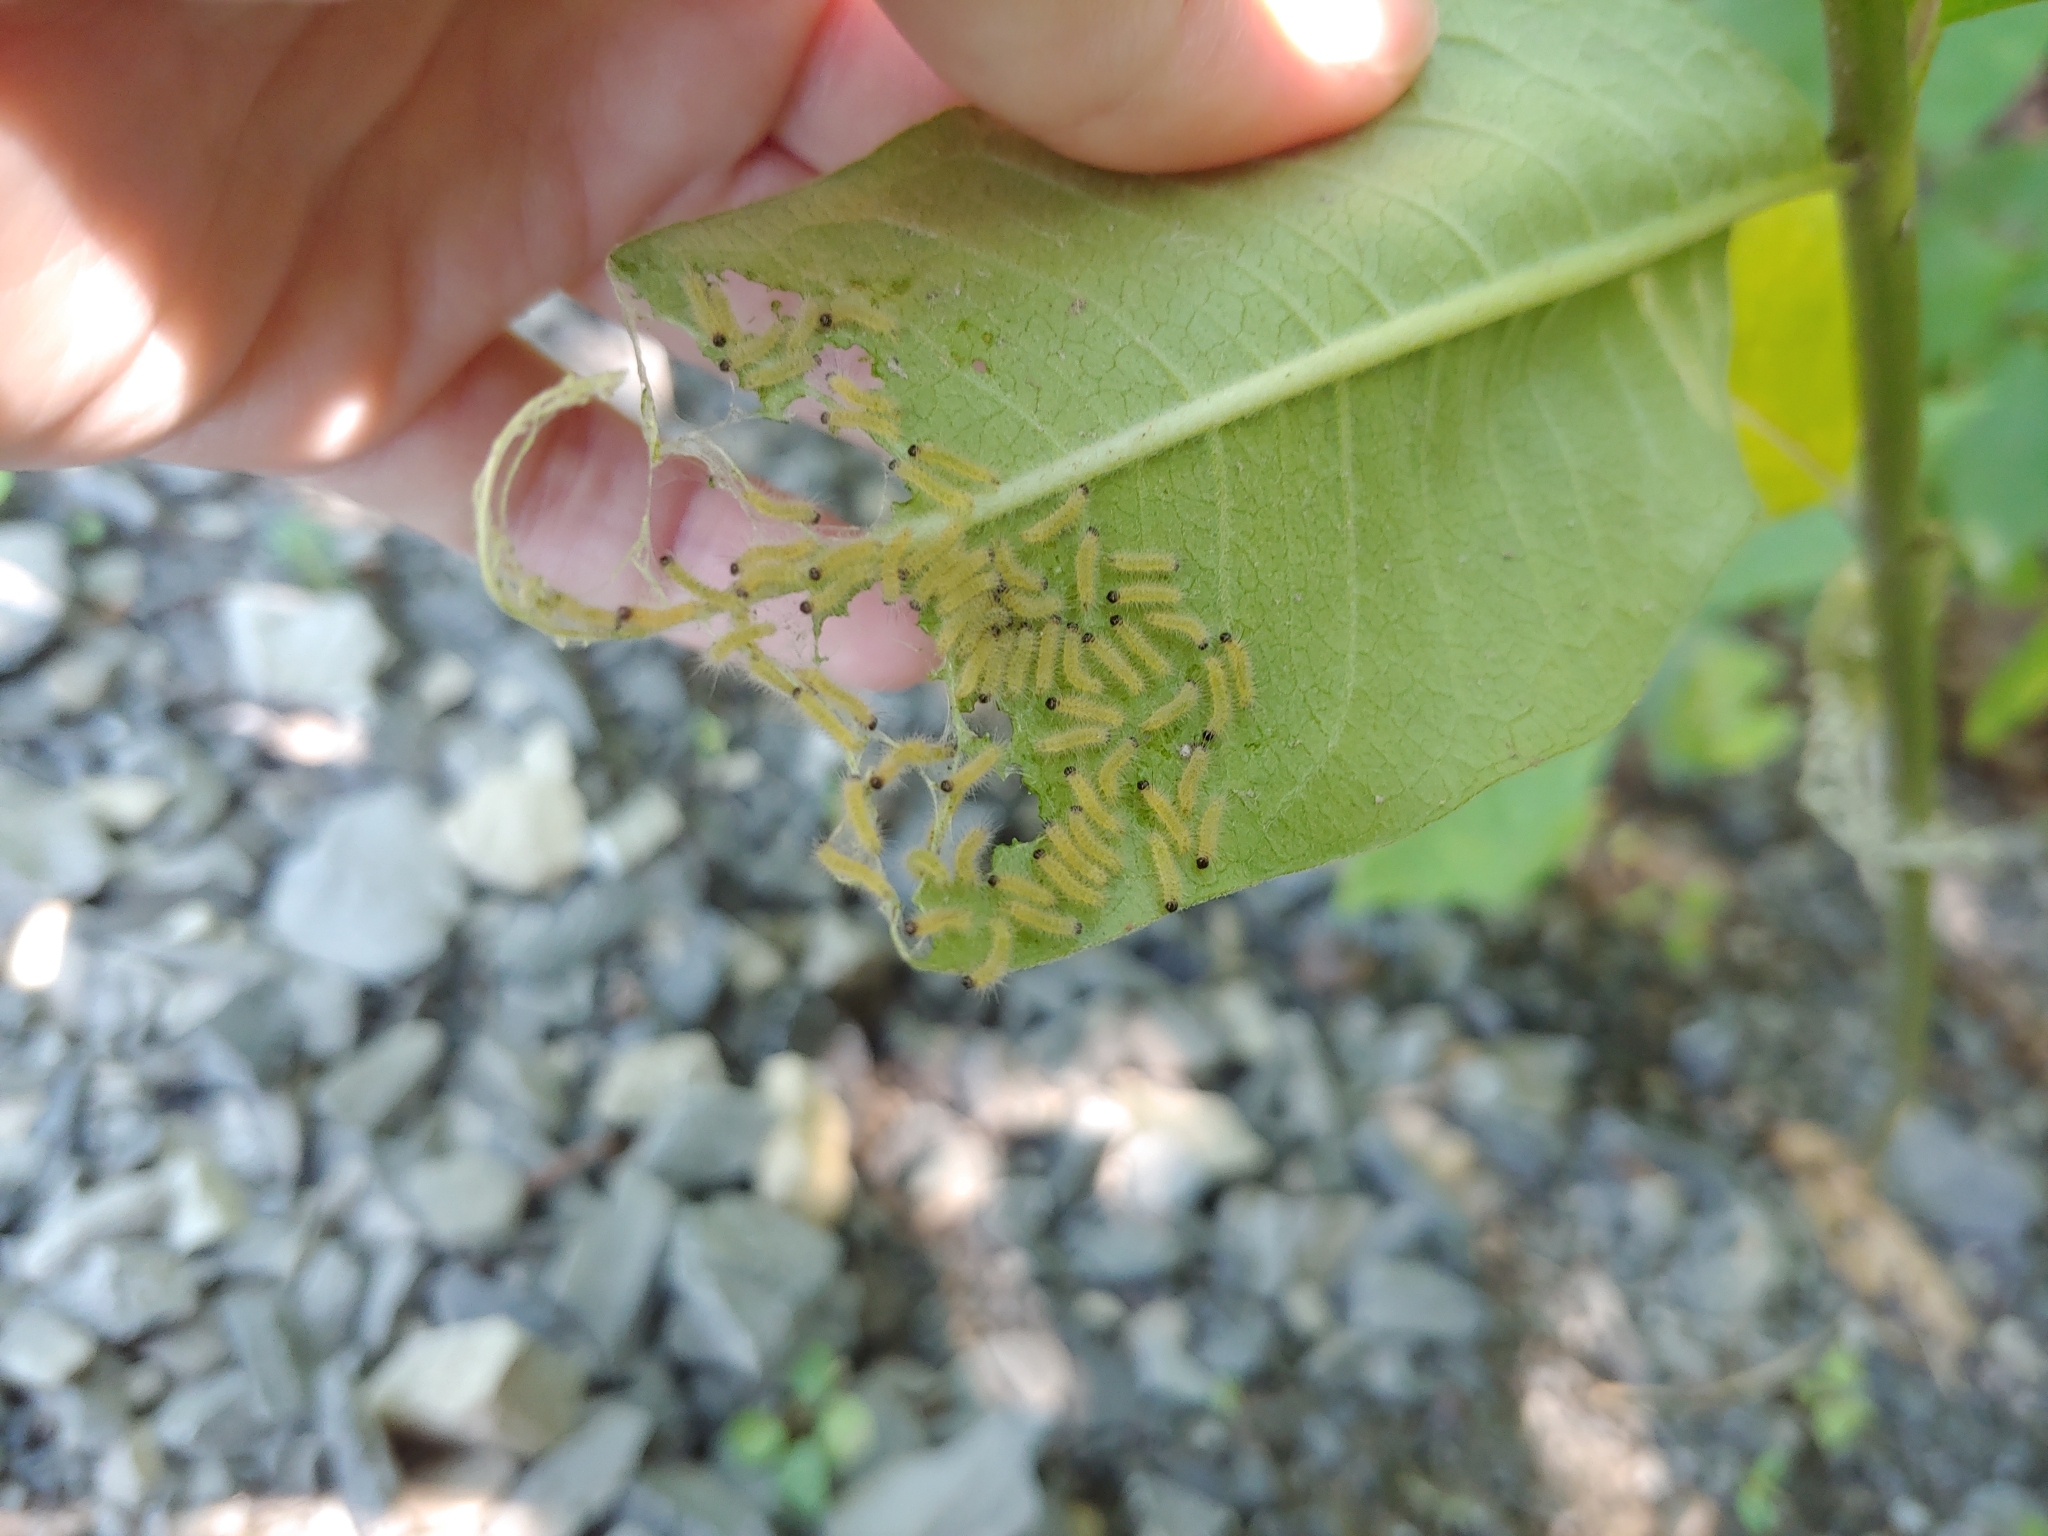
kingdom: Animalia
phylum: Arthropoda
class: Insecta
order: Lepidoptera
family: Erebidae
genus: Euchaetes
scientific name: Euchaetes egle
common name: Milkweed tussock moth
